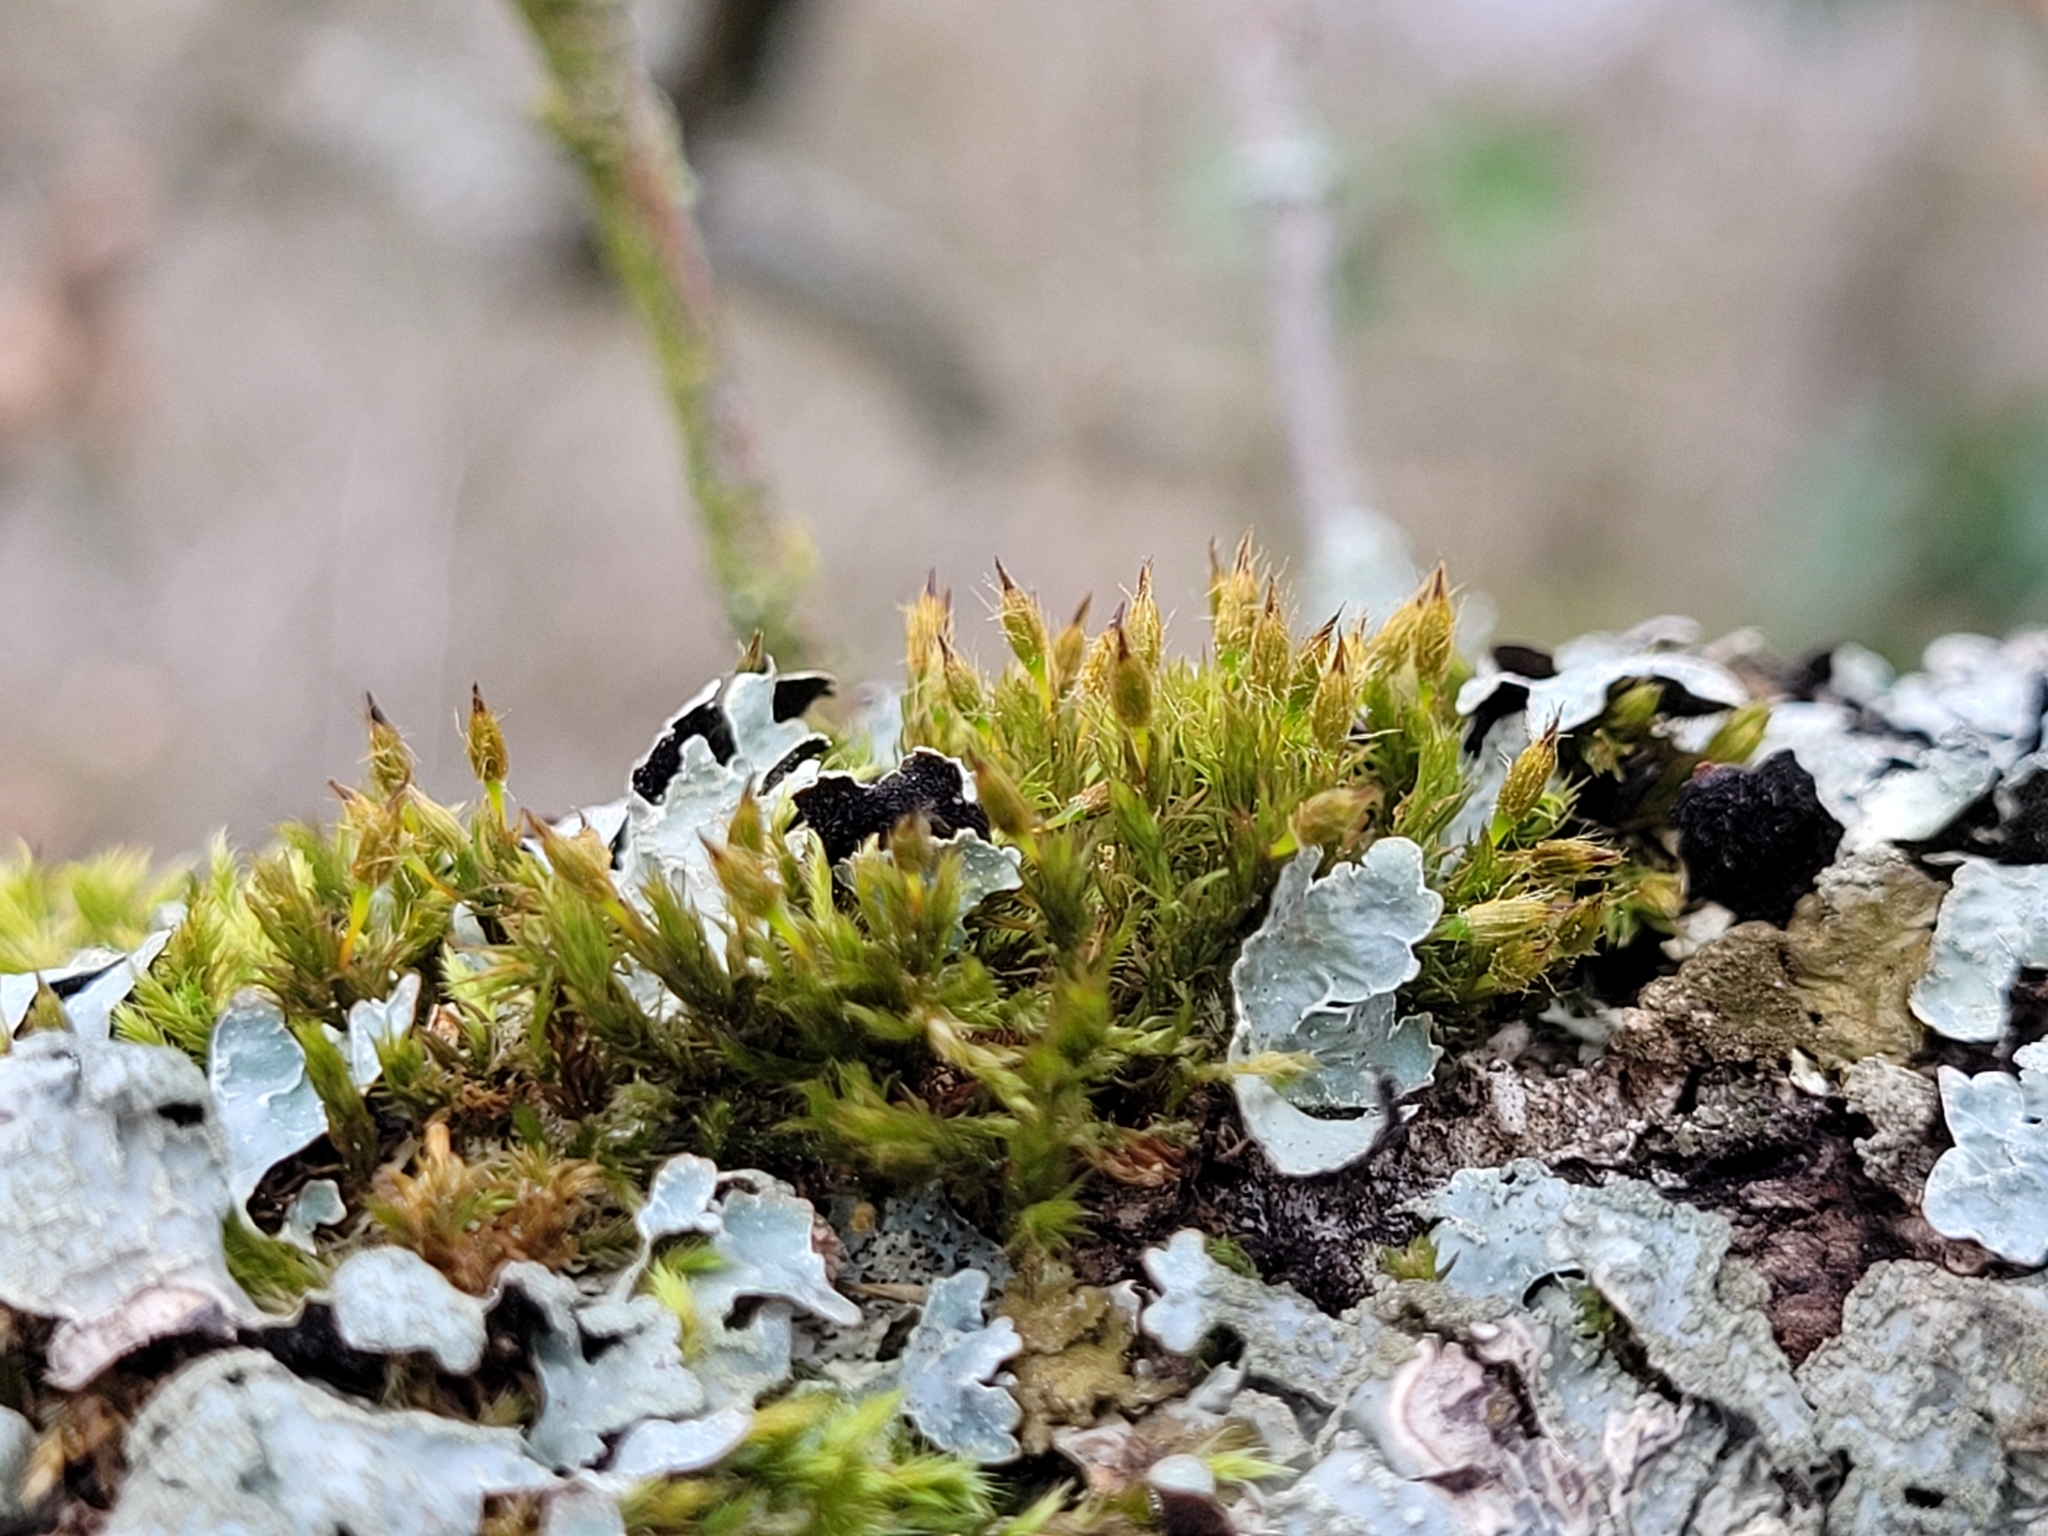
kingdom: Plantae
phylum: Bryophyta
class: Bryopsida
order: Orthotrichales
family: Orthotrichaceae
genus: Lewinskya
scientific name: Lewinskya speciosa
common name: Showy bristle moss
